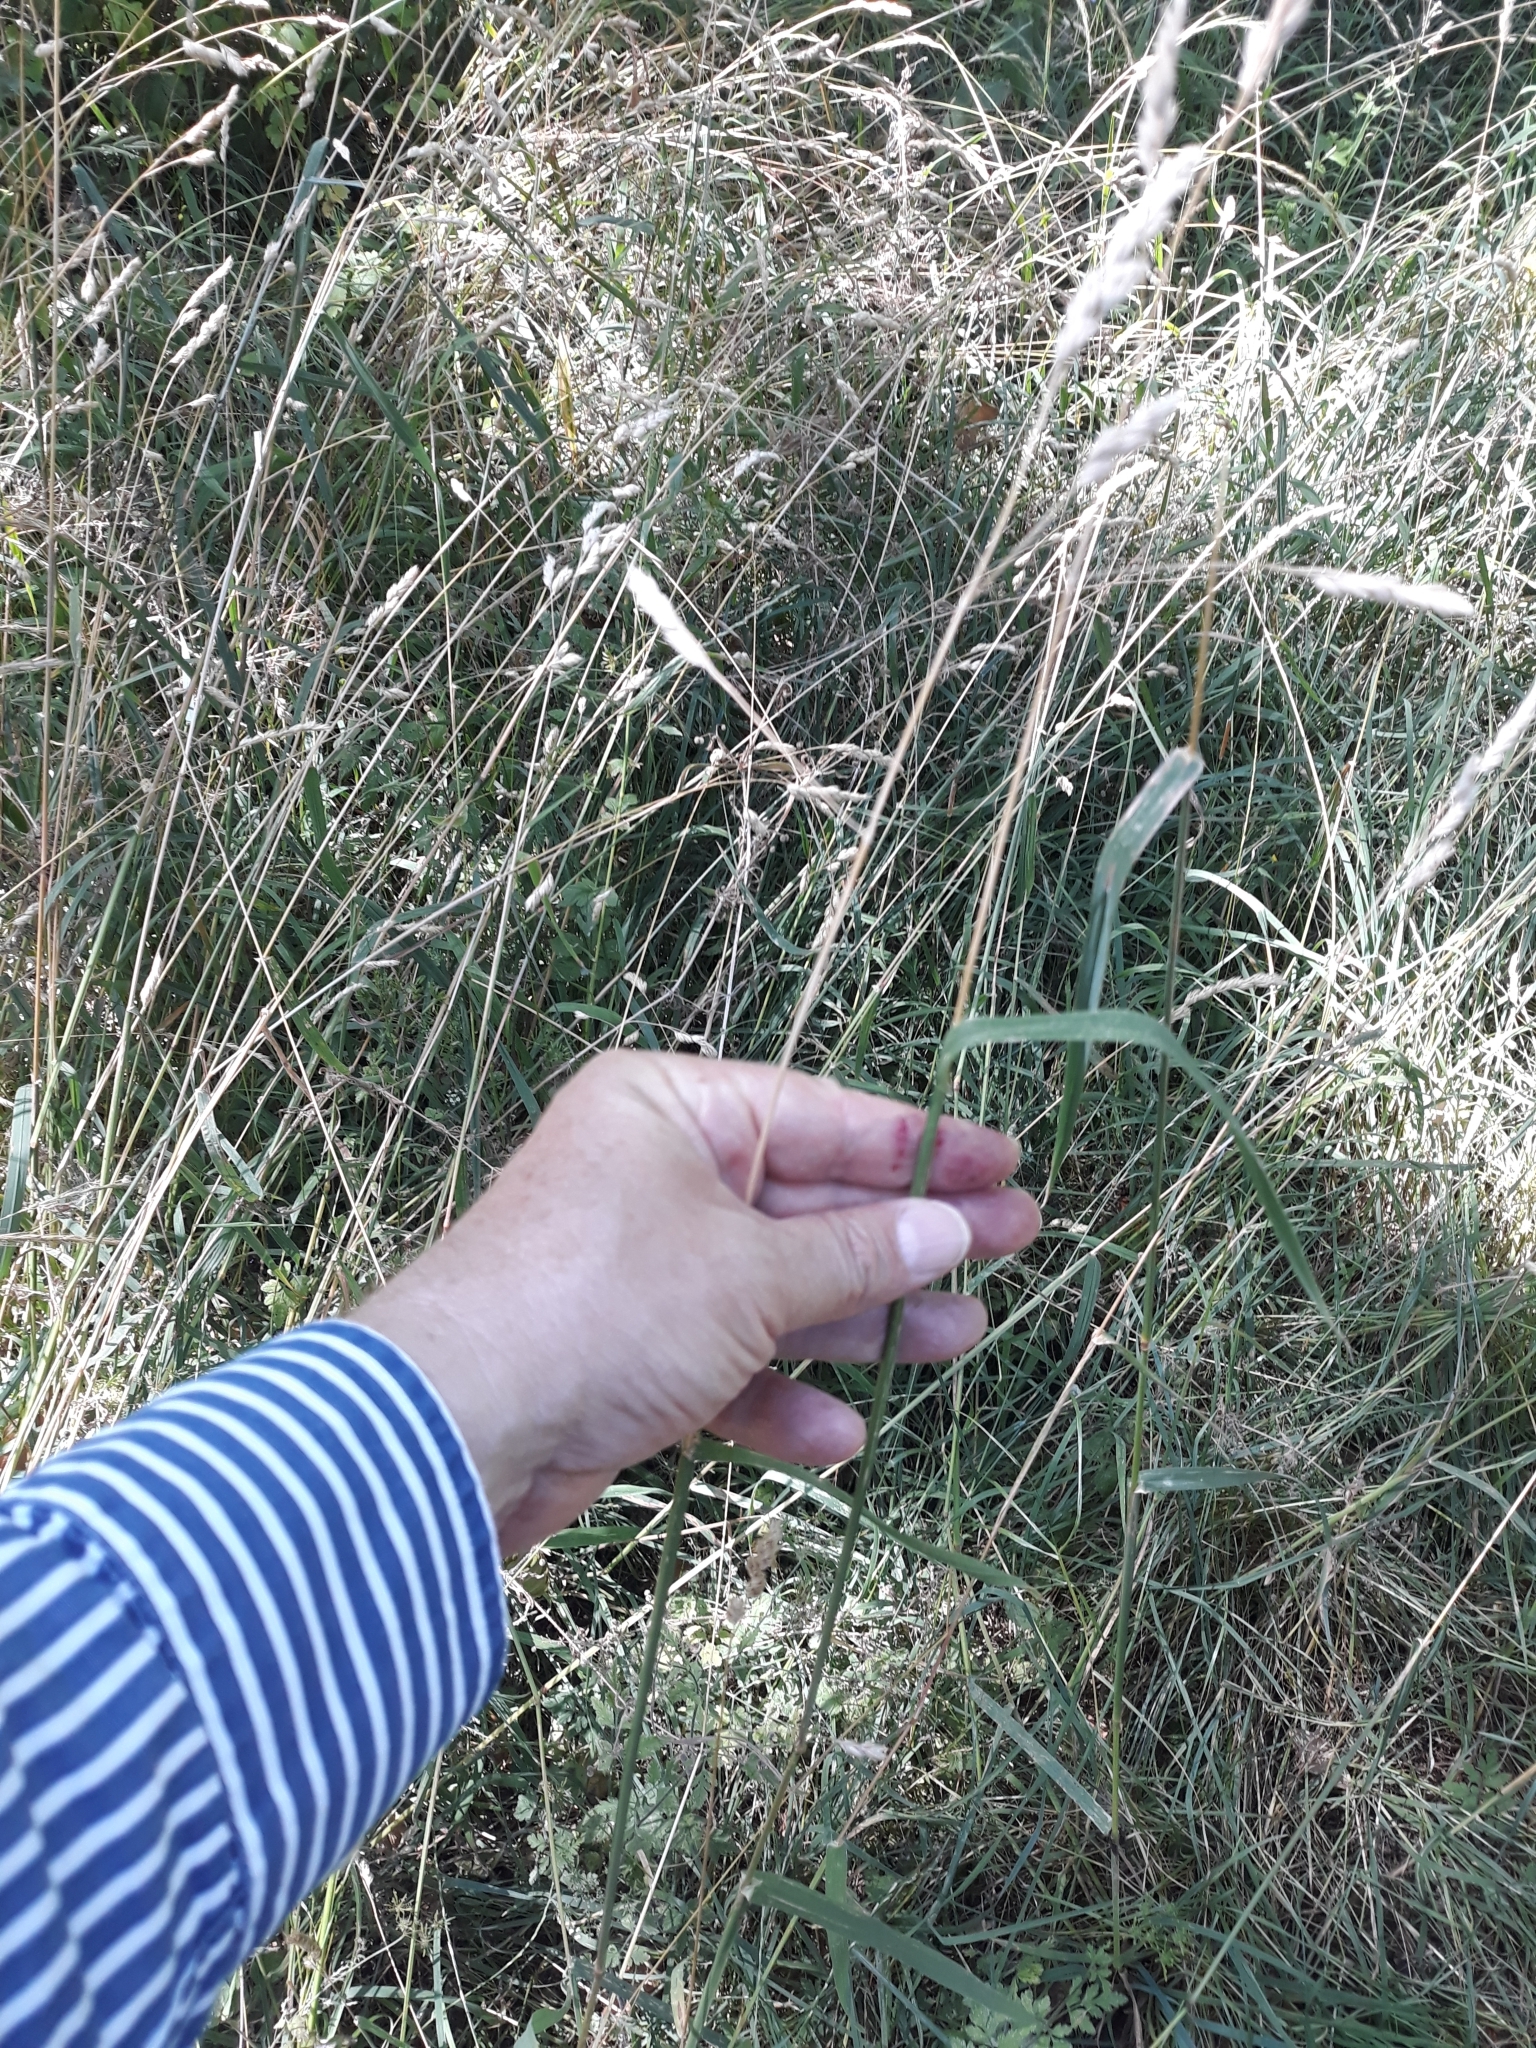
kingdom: Plantae
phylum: Tracheophyta
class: Liliopsida
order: Poales
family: Poaceae
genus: Dactylis
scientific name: Dactylis glomerata
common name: Orchardgrass
